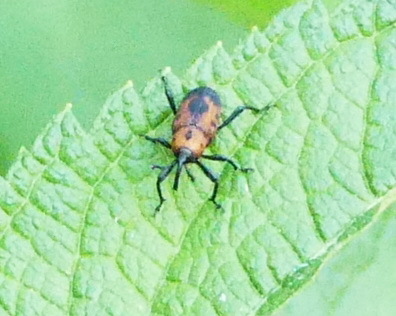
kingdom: Animalia
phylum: Arthropoda
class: Insecta
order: Coleoptera
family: Dryophthoridae
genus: Rhodobaenus
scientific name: Rhodobaenus quinquepunctatus
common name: Cocklebur weevil
